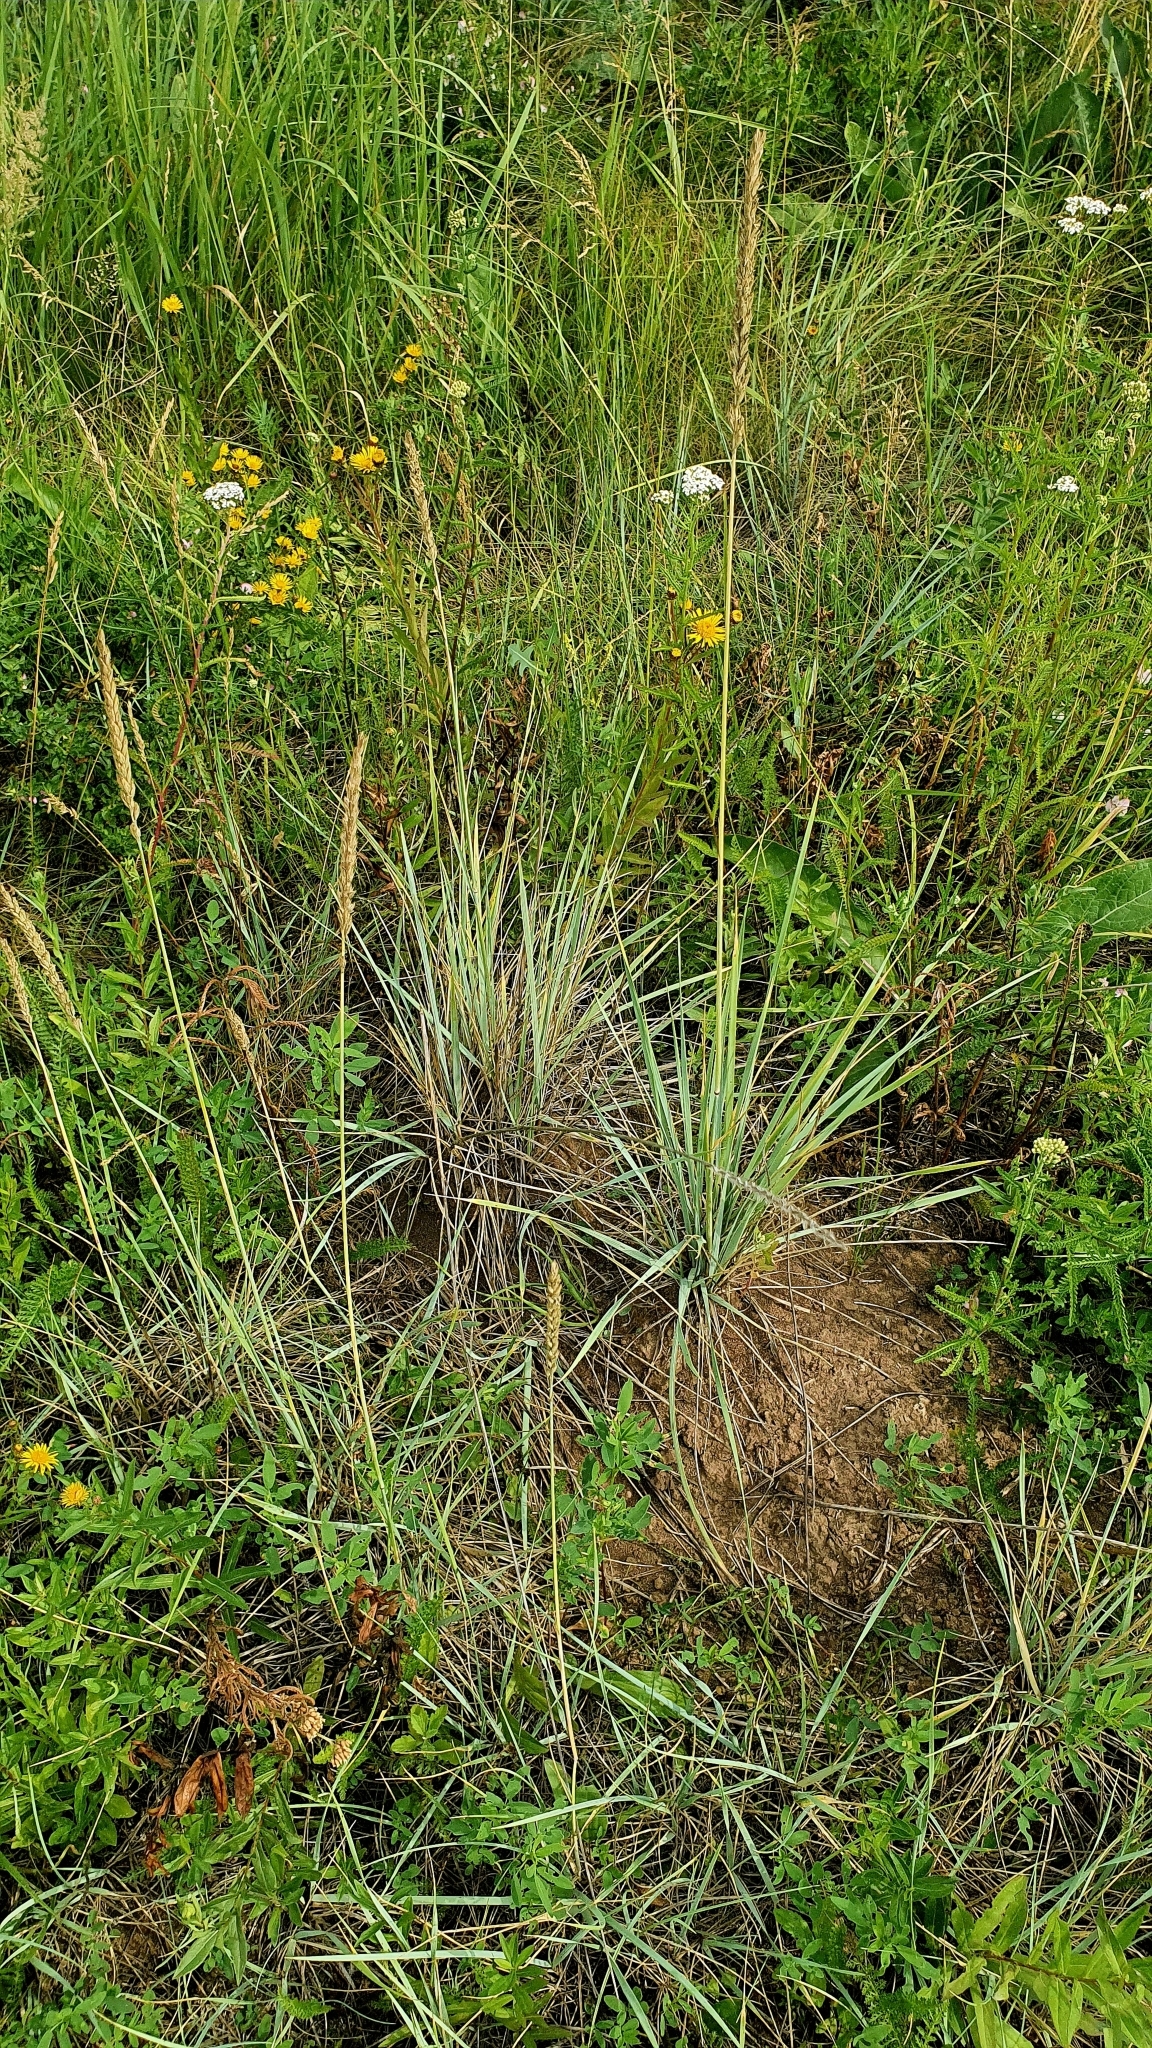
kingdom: Plantae
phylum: Tracheophyta
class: Liliopsida
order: Poales
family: Poaceae
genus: Leymus
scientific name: Leymus paboanus
